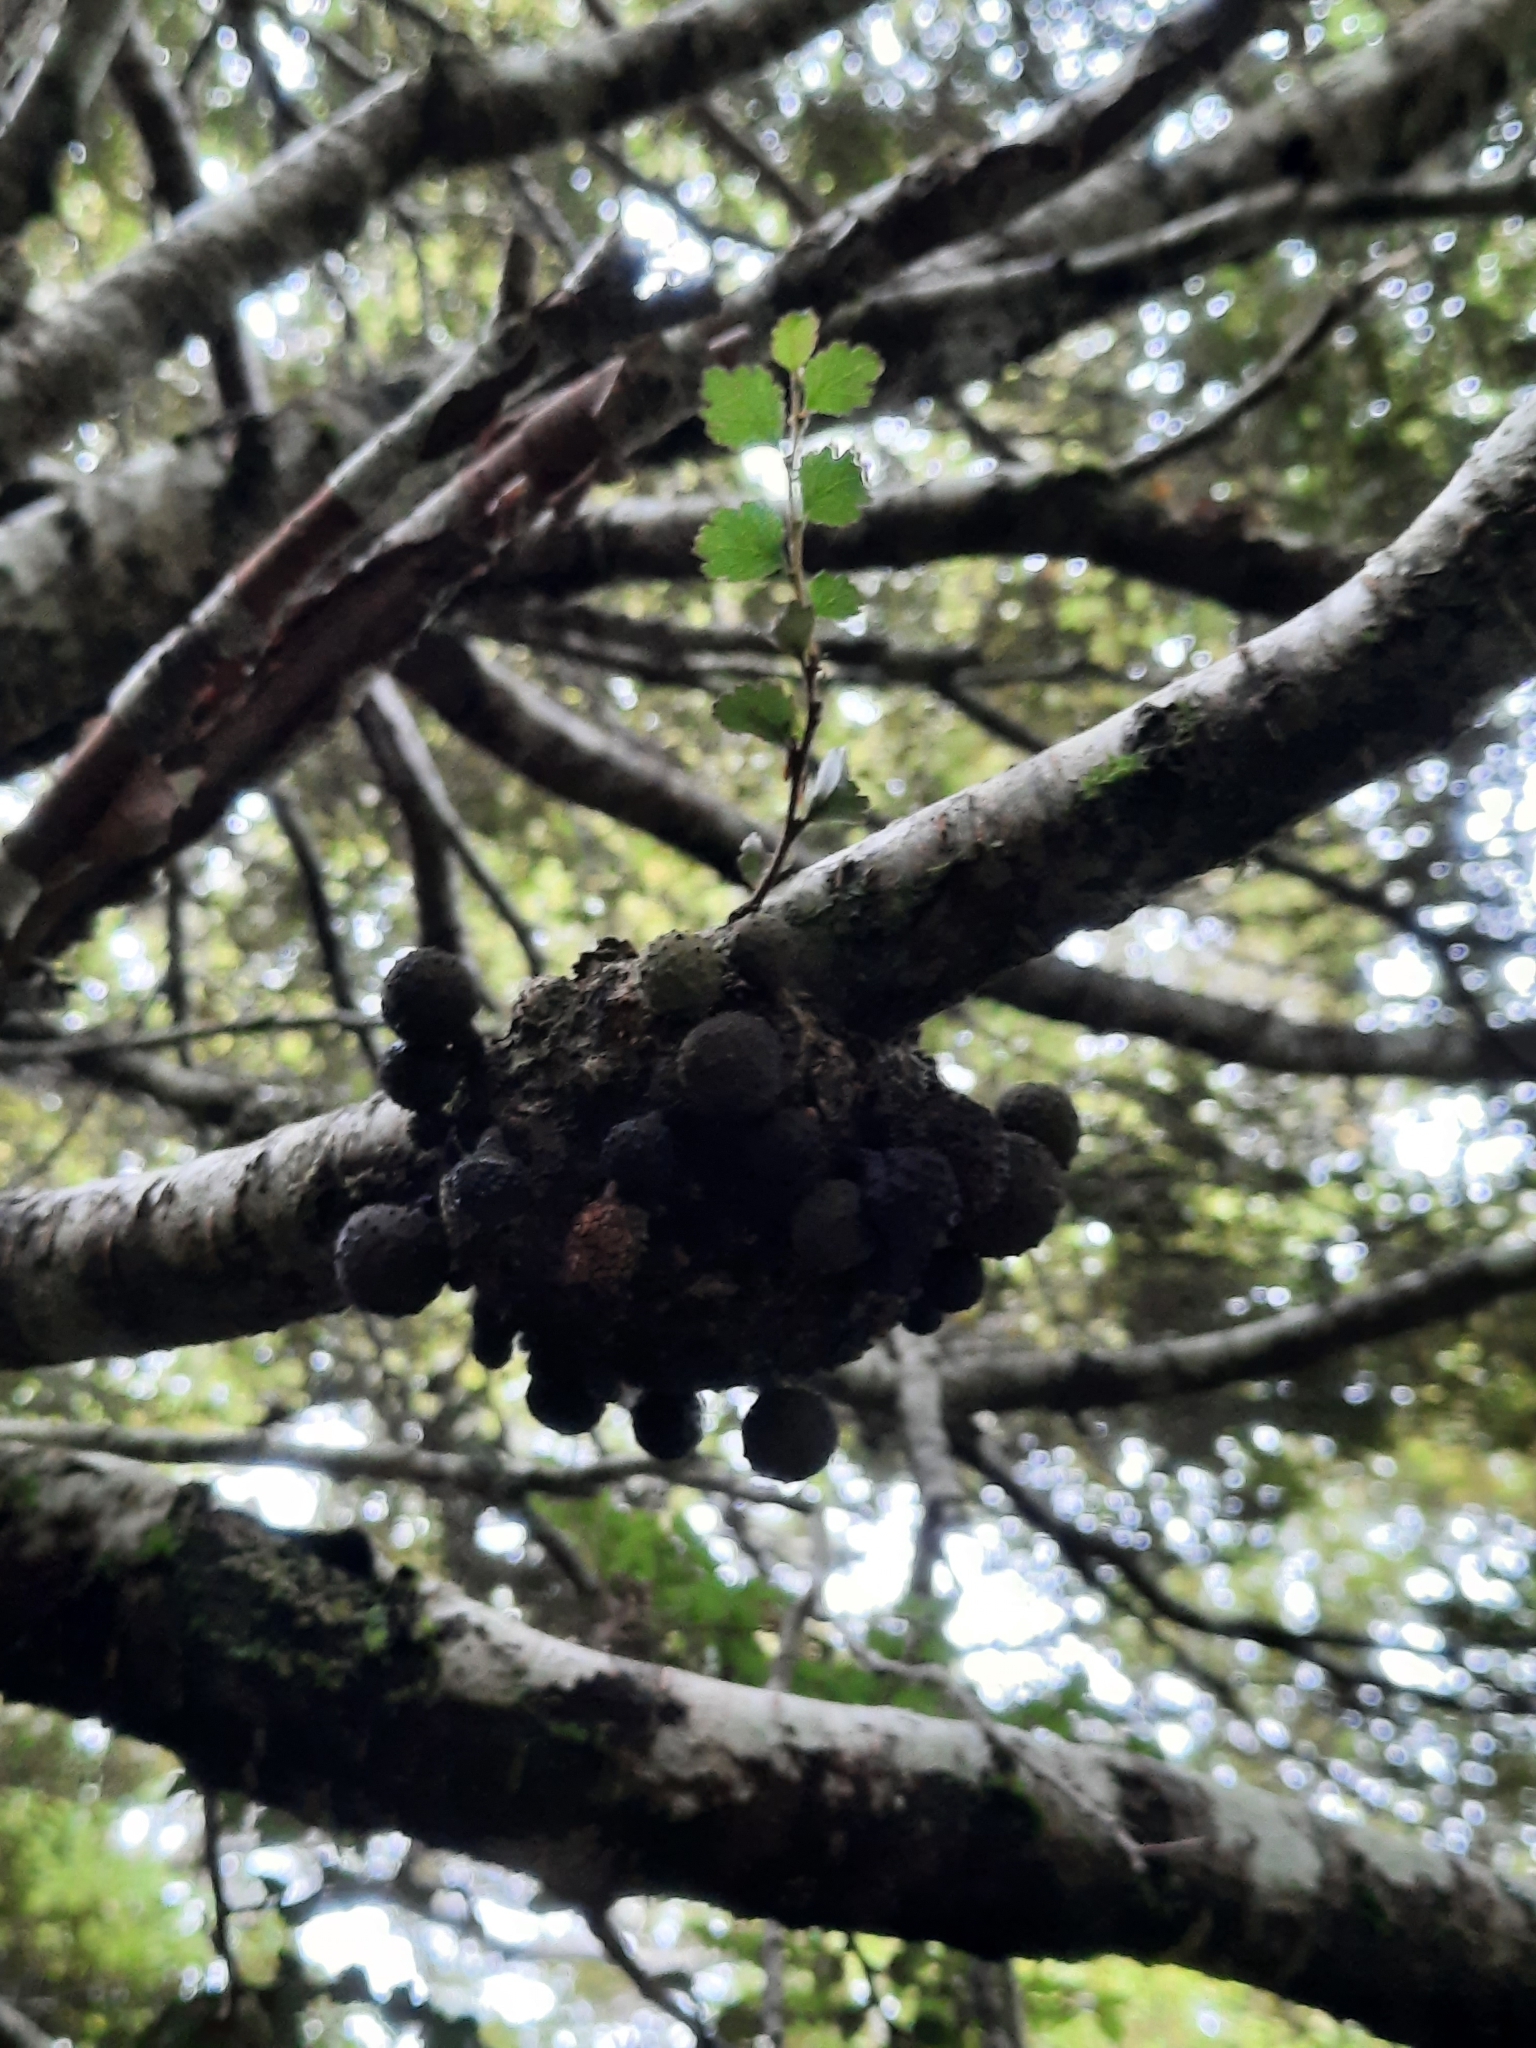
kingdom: Fungi
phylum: Ascomycota
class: Leotiomycetes
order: Cyttariales
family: Cyttariaceae
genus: Cyttaria
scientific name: Cyttaria nigra
